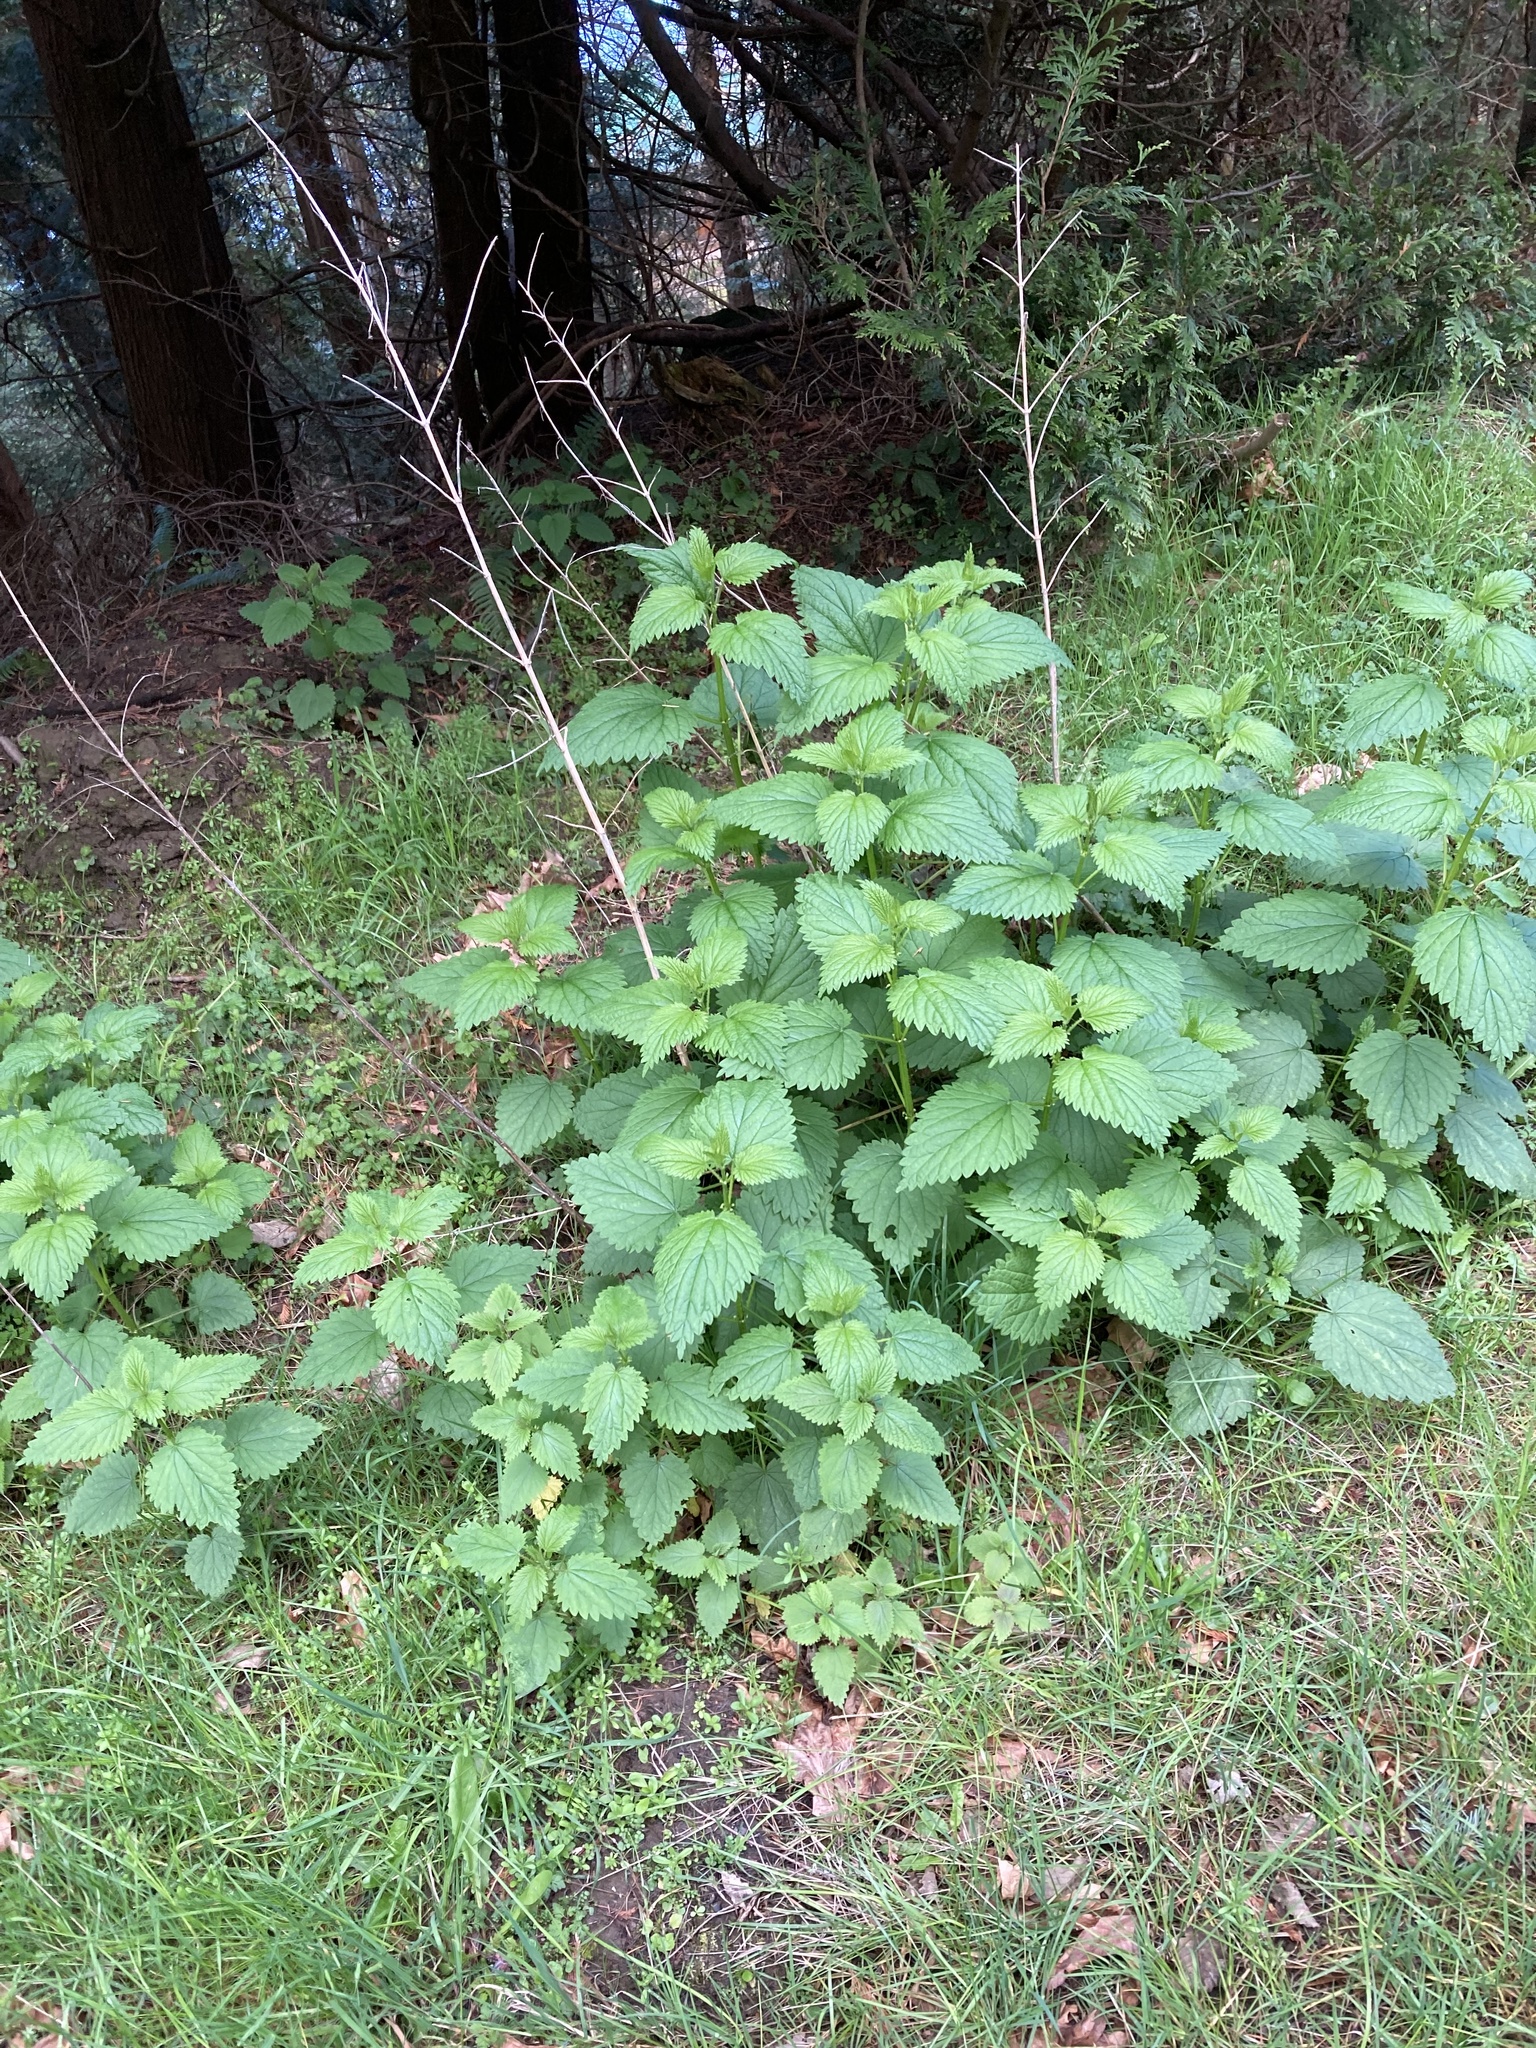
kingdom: Plantae
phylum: Tracheophyta
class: Magnoliopsida
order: Rosales
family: Urticaceae
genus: Urtica
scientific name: Urtica gracilis
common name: Slender stinging nettle
